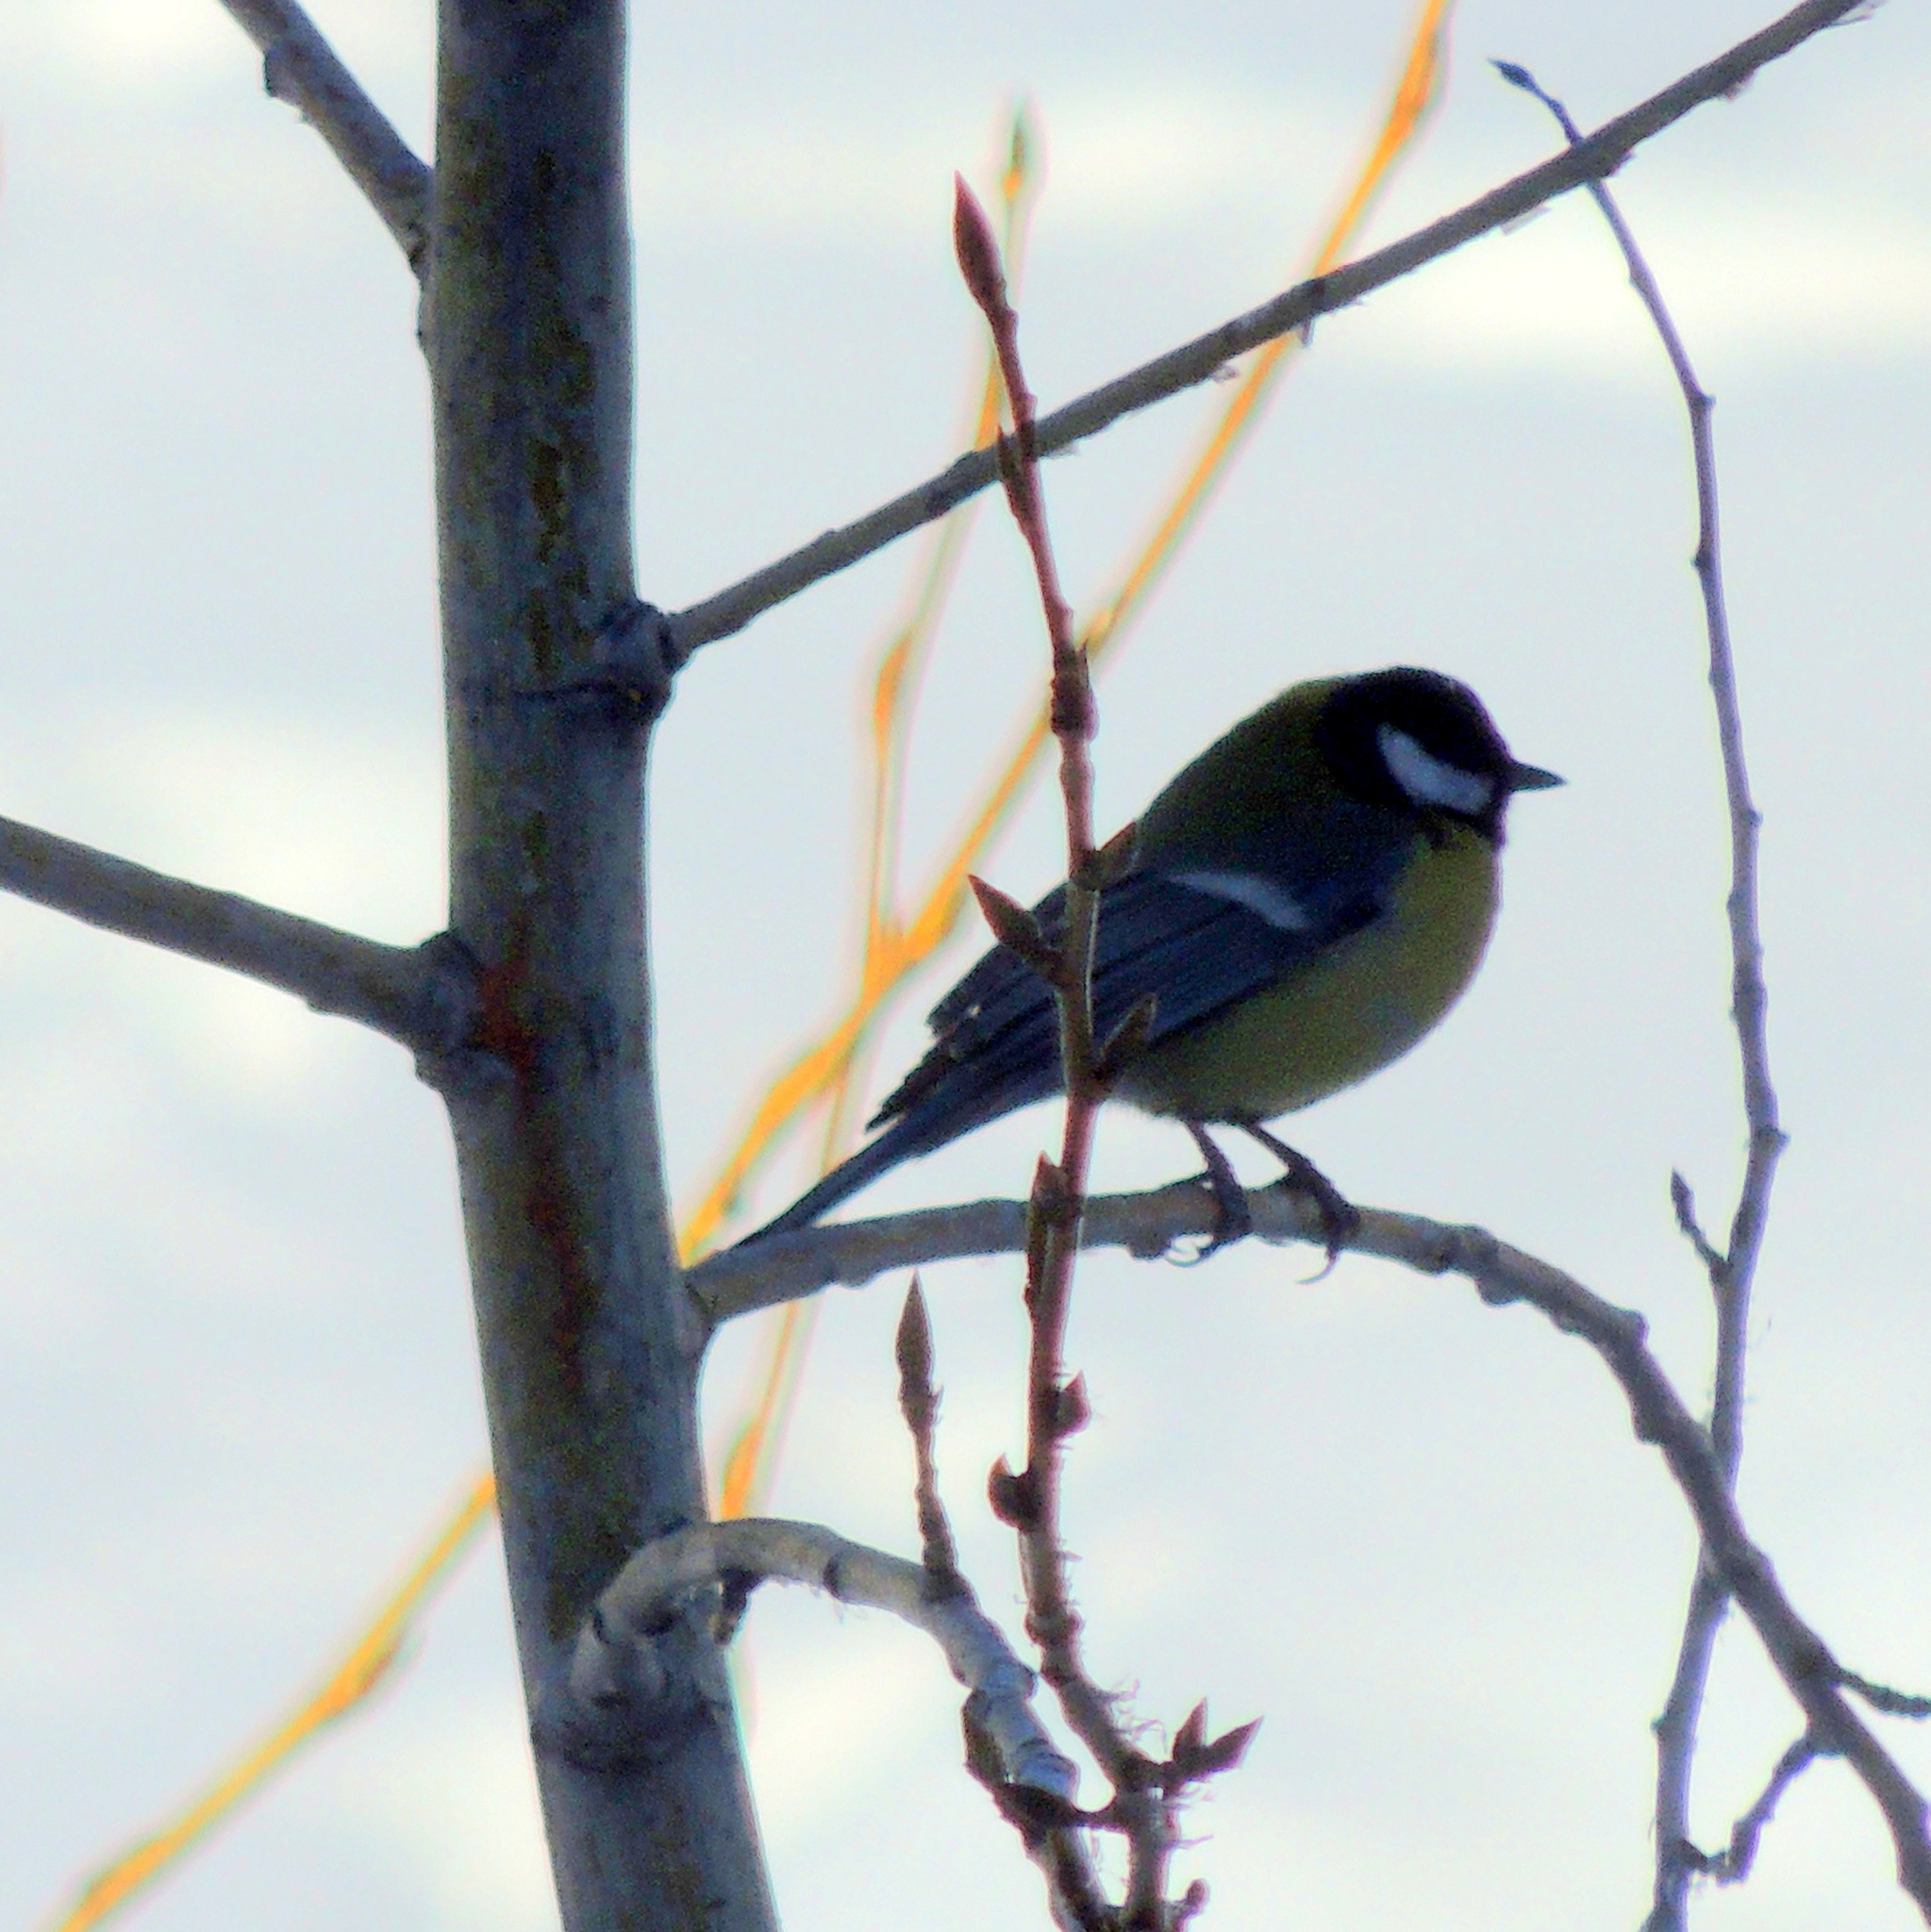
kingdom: Animalia
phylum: Chordata
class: Aves
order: Passeriformes
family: Paridae
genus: Parus
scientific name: Parus major
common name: Great tit
